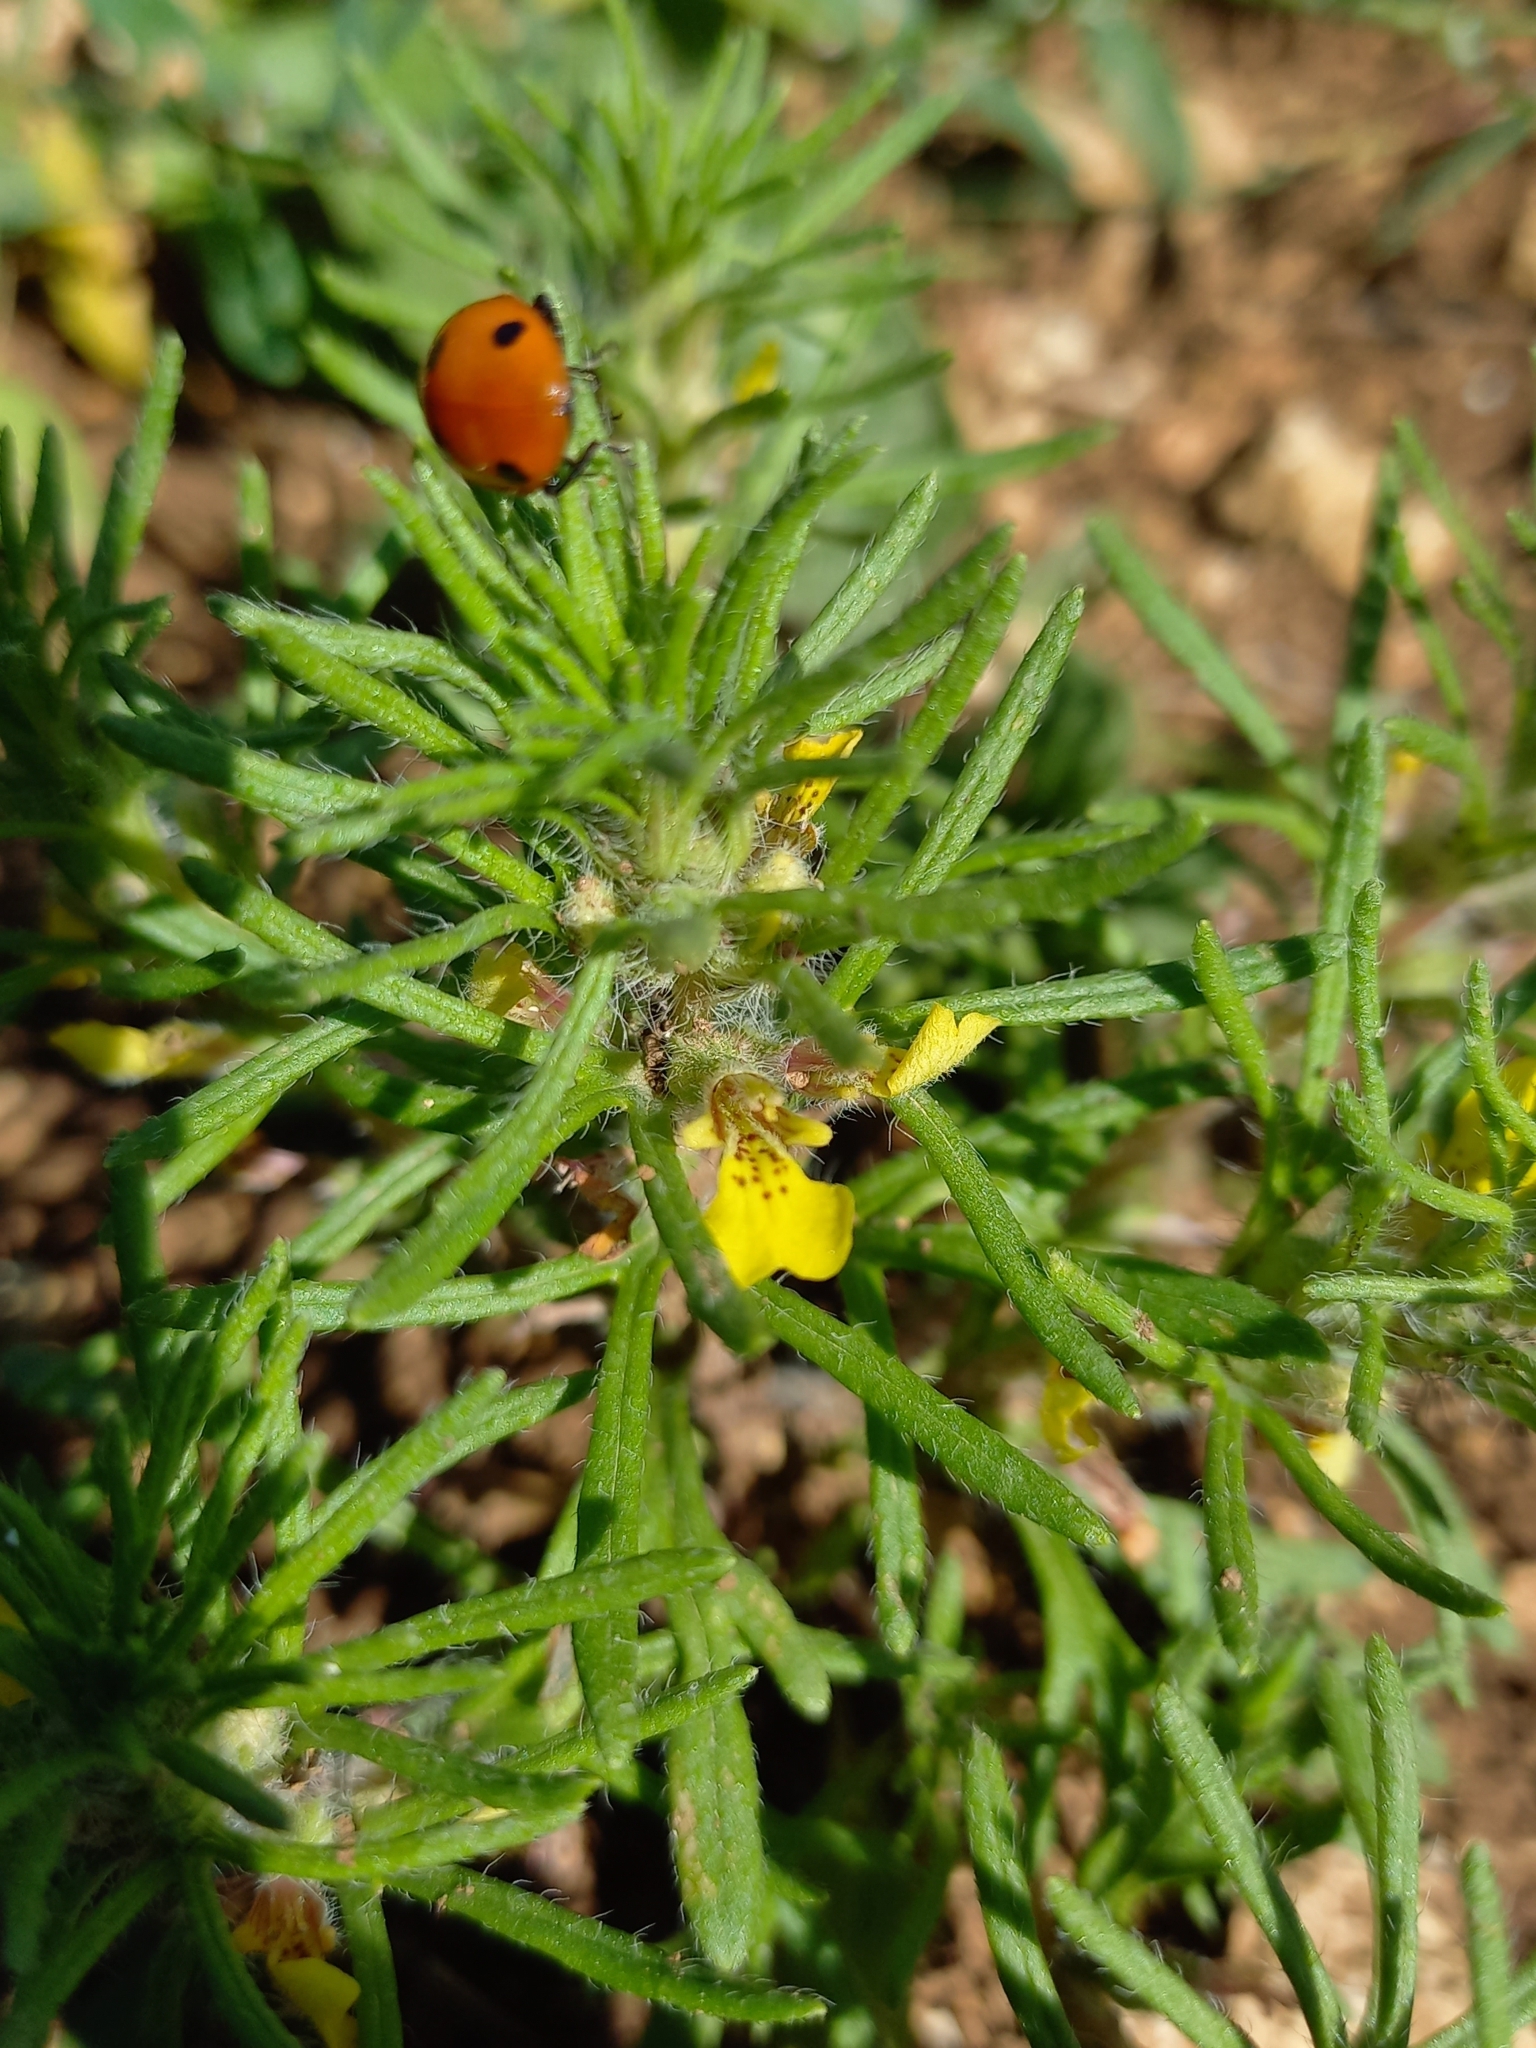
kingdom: Plantae
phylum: Tracheophyta
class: Magnoliopsida
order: Lamiales
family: Lamiaceae
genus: Ajuga
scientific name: Ajuga chamaepitys
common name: Ground-pine
